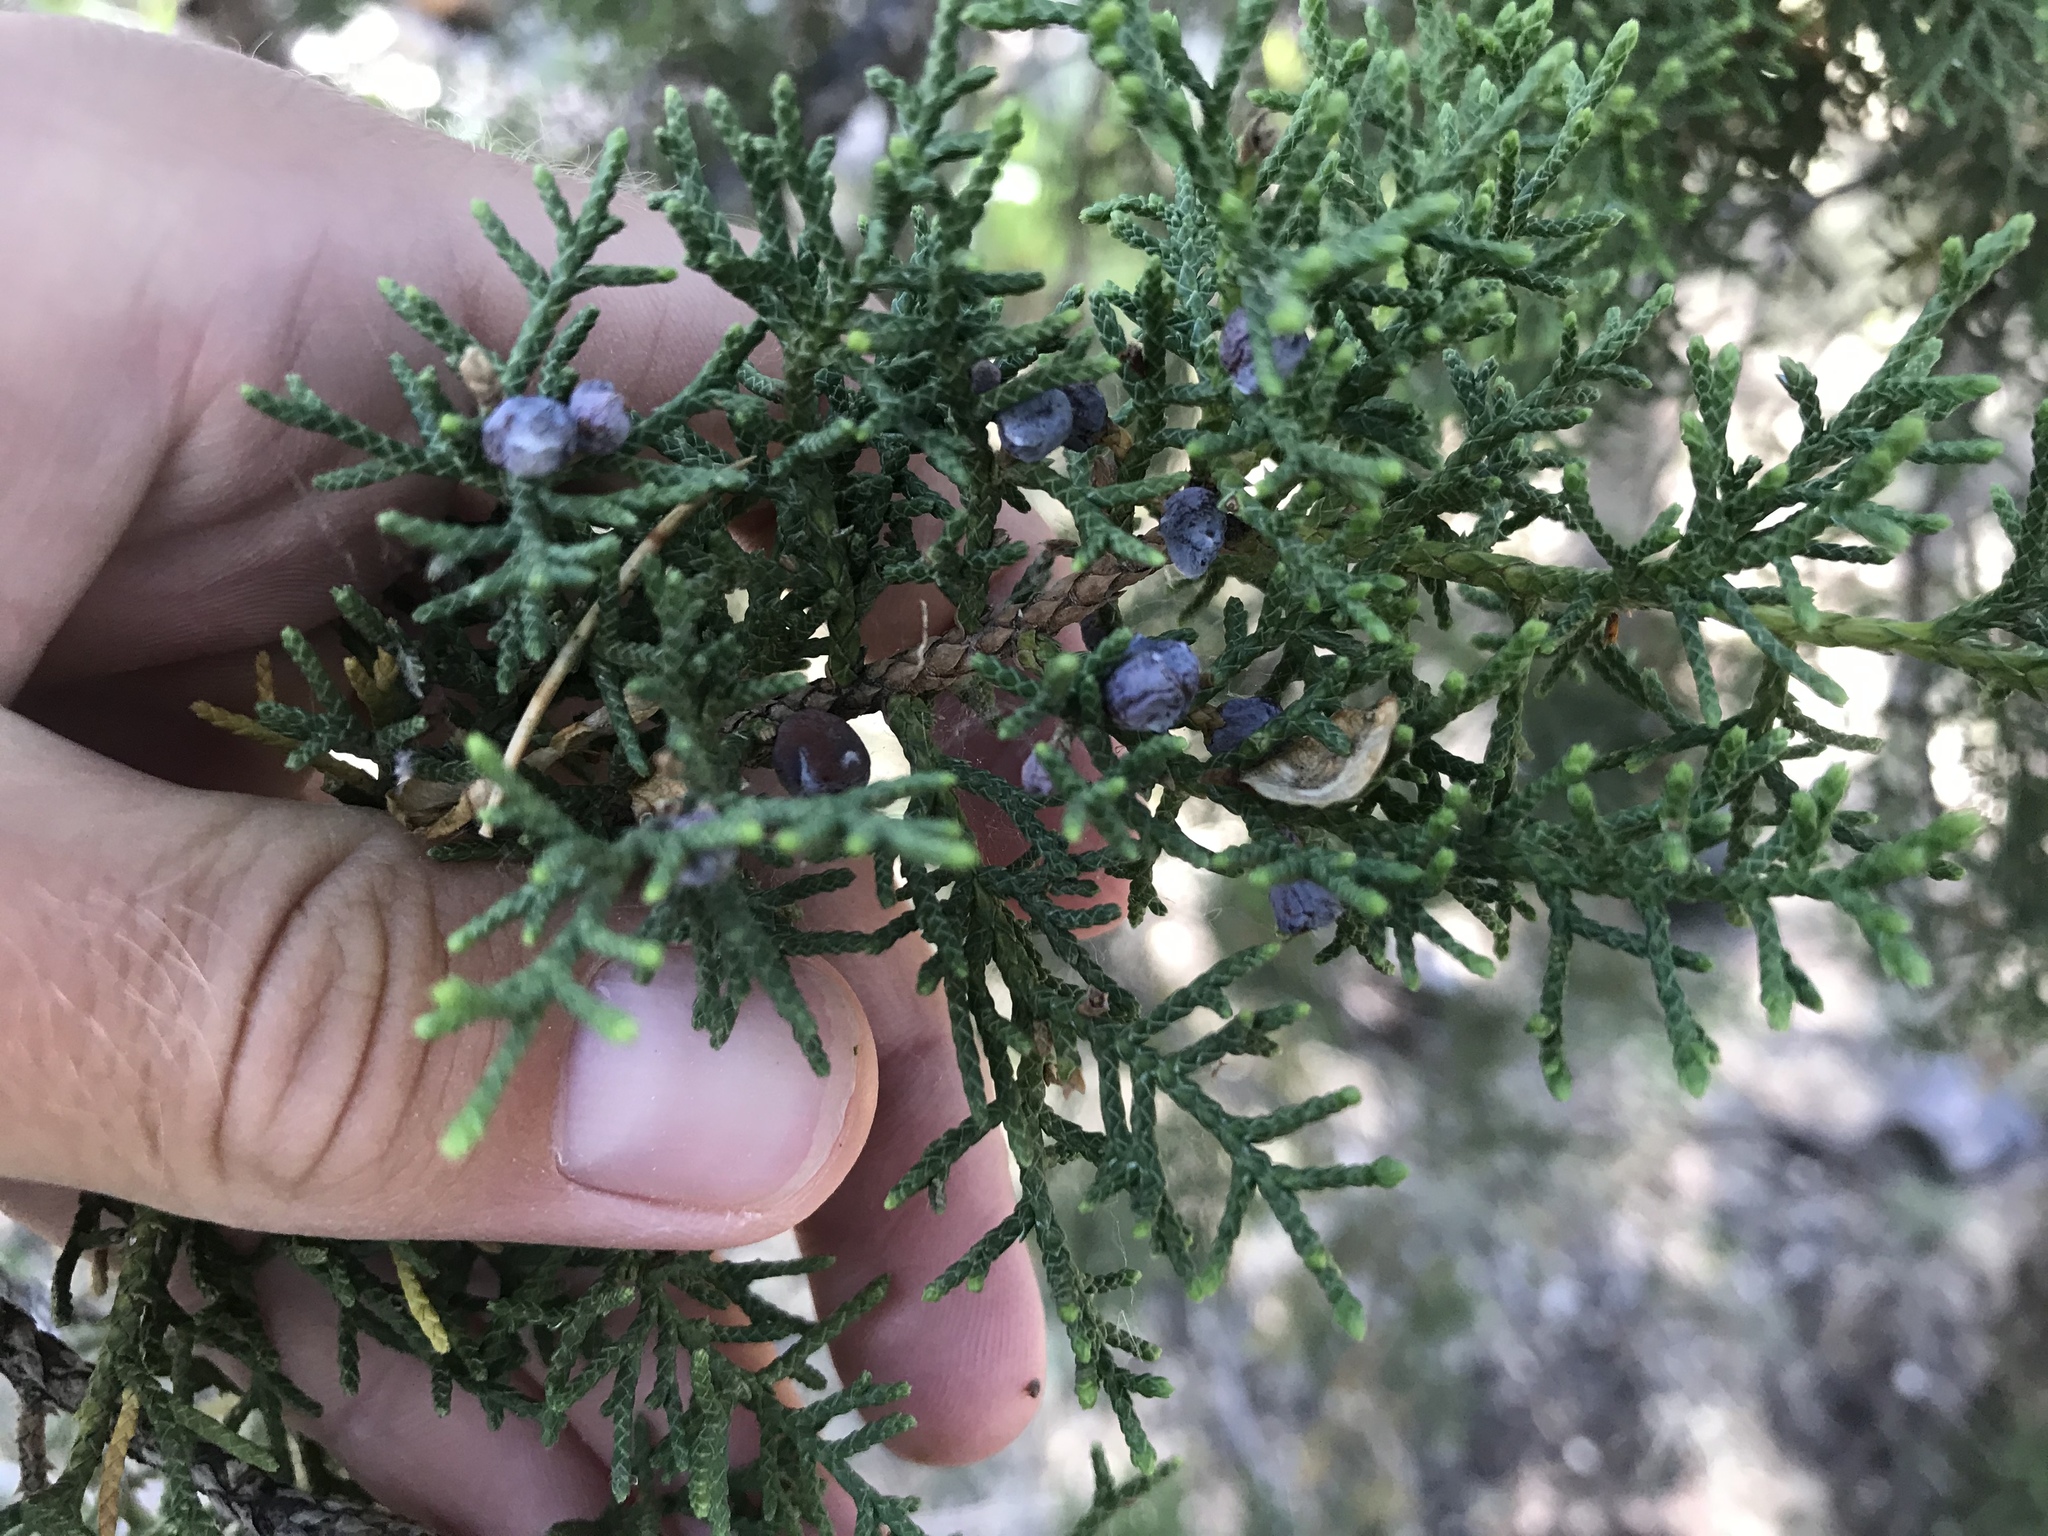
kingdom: Plantae
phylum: Tracheophyta
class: Pinopsida
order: Pinales
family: Cupressaceae
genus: Juniperus
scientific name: Juniperus monosperma
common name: One-seed juniper
